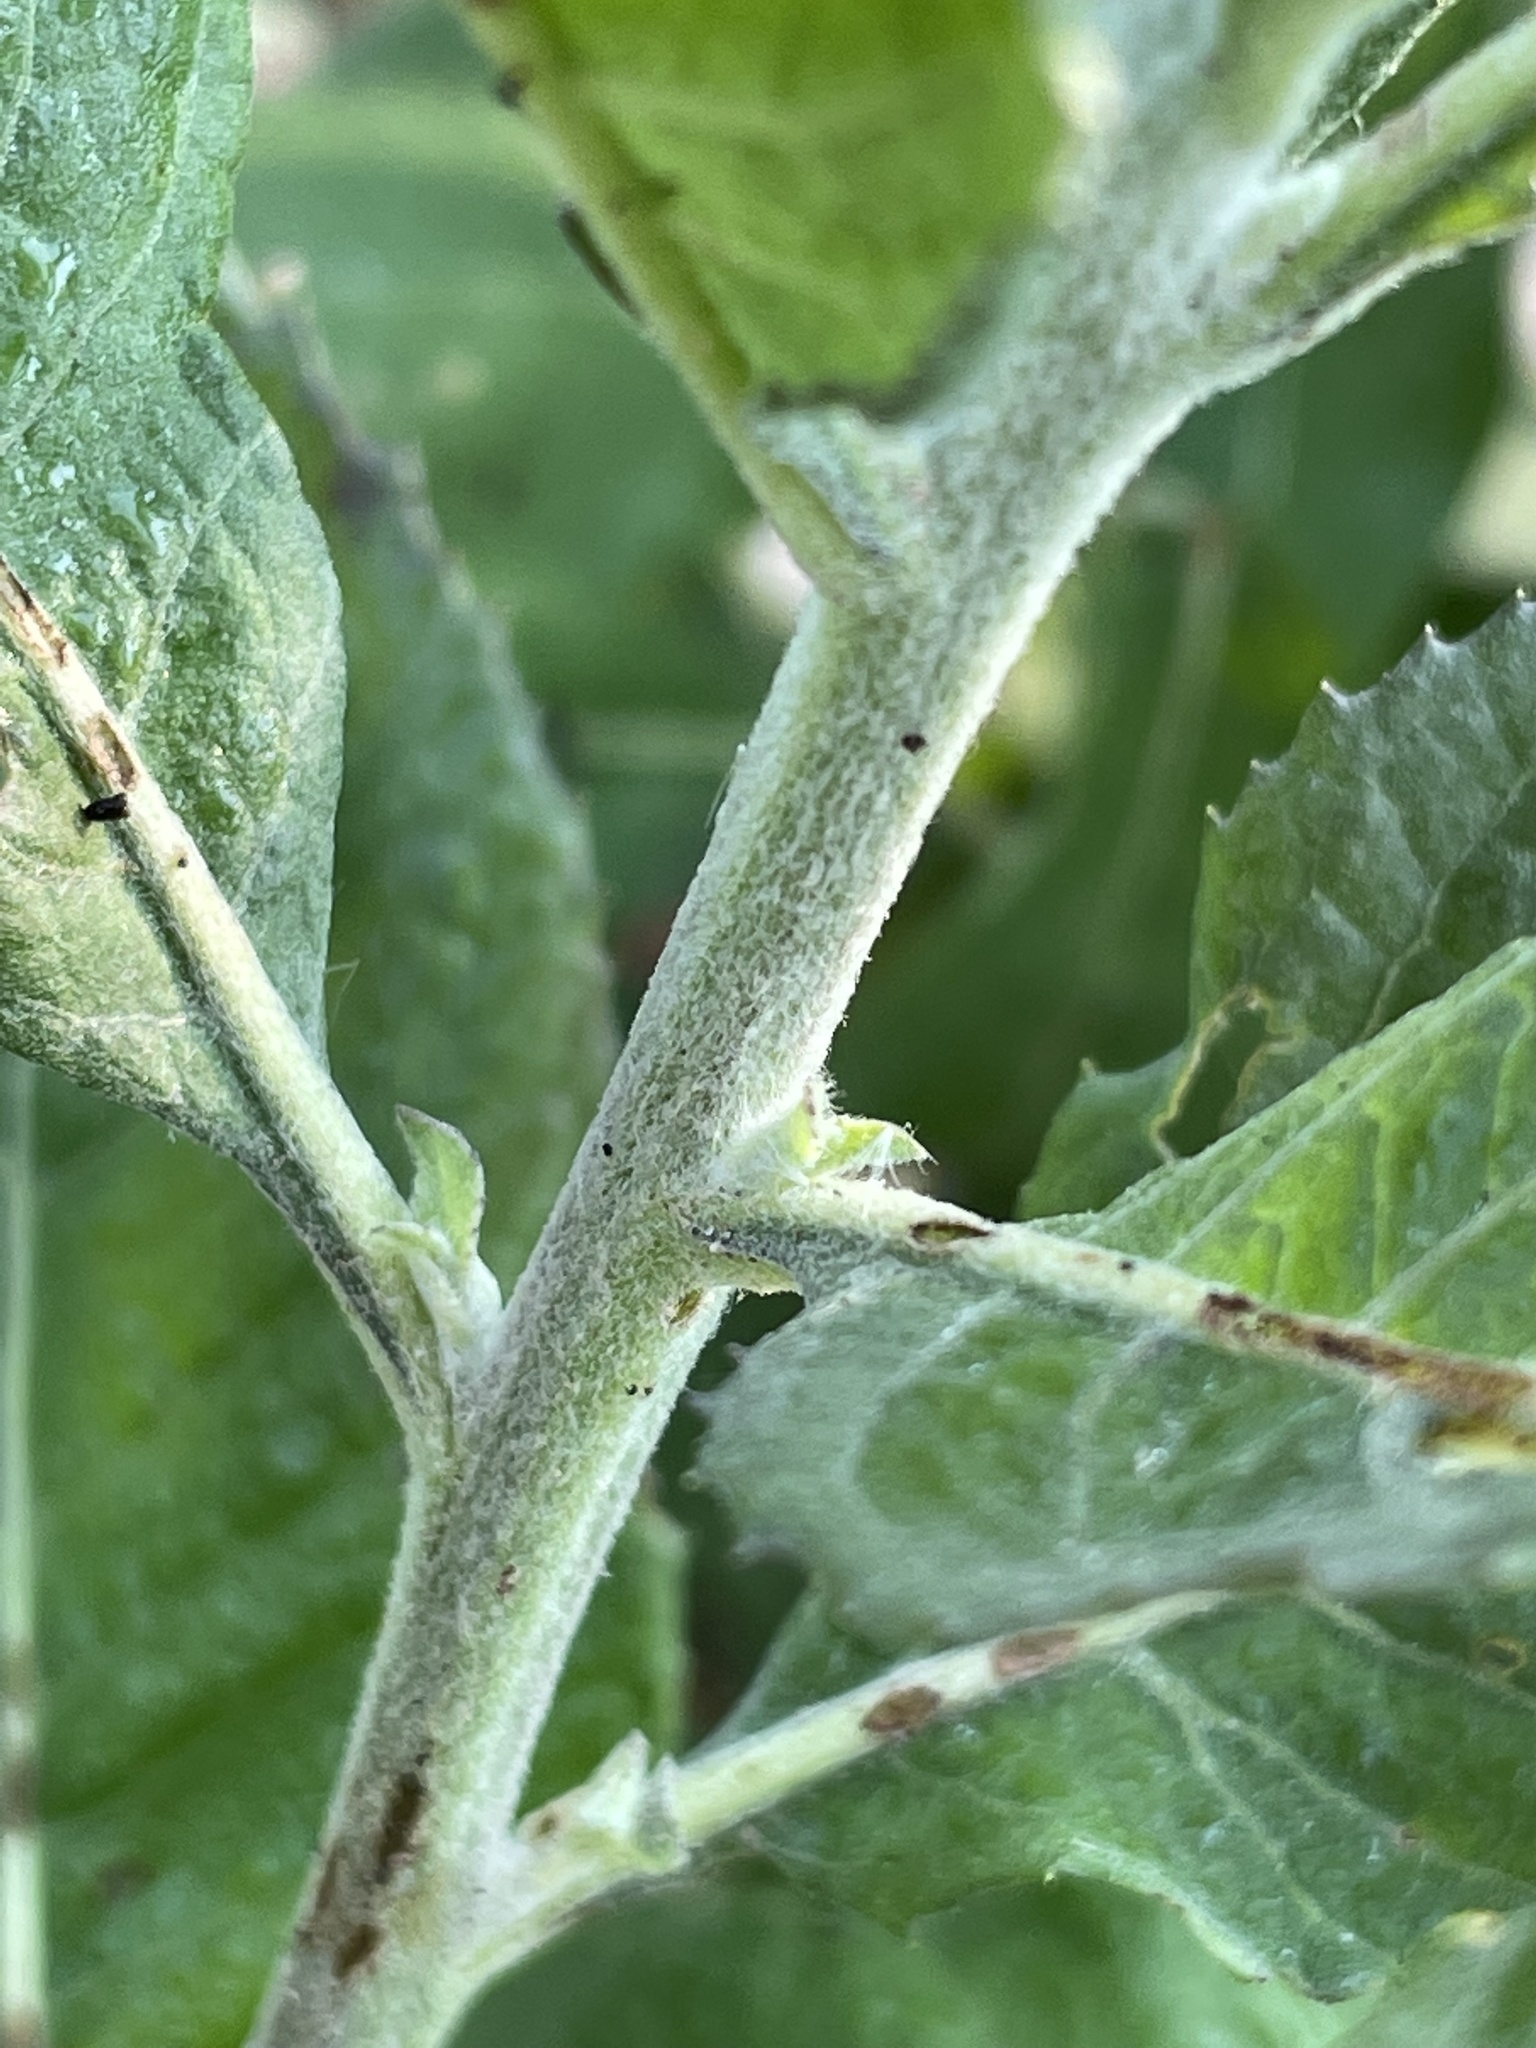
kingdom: Plantae
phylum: Tracheophyta
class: Magnoliopsida
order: Asterales
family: Asteraceae
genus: Pluchea
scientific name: Pluchea camphorata
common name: Camphor pluchea
